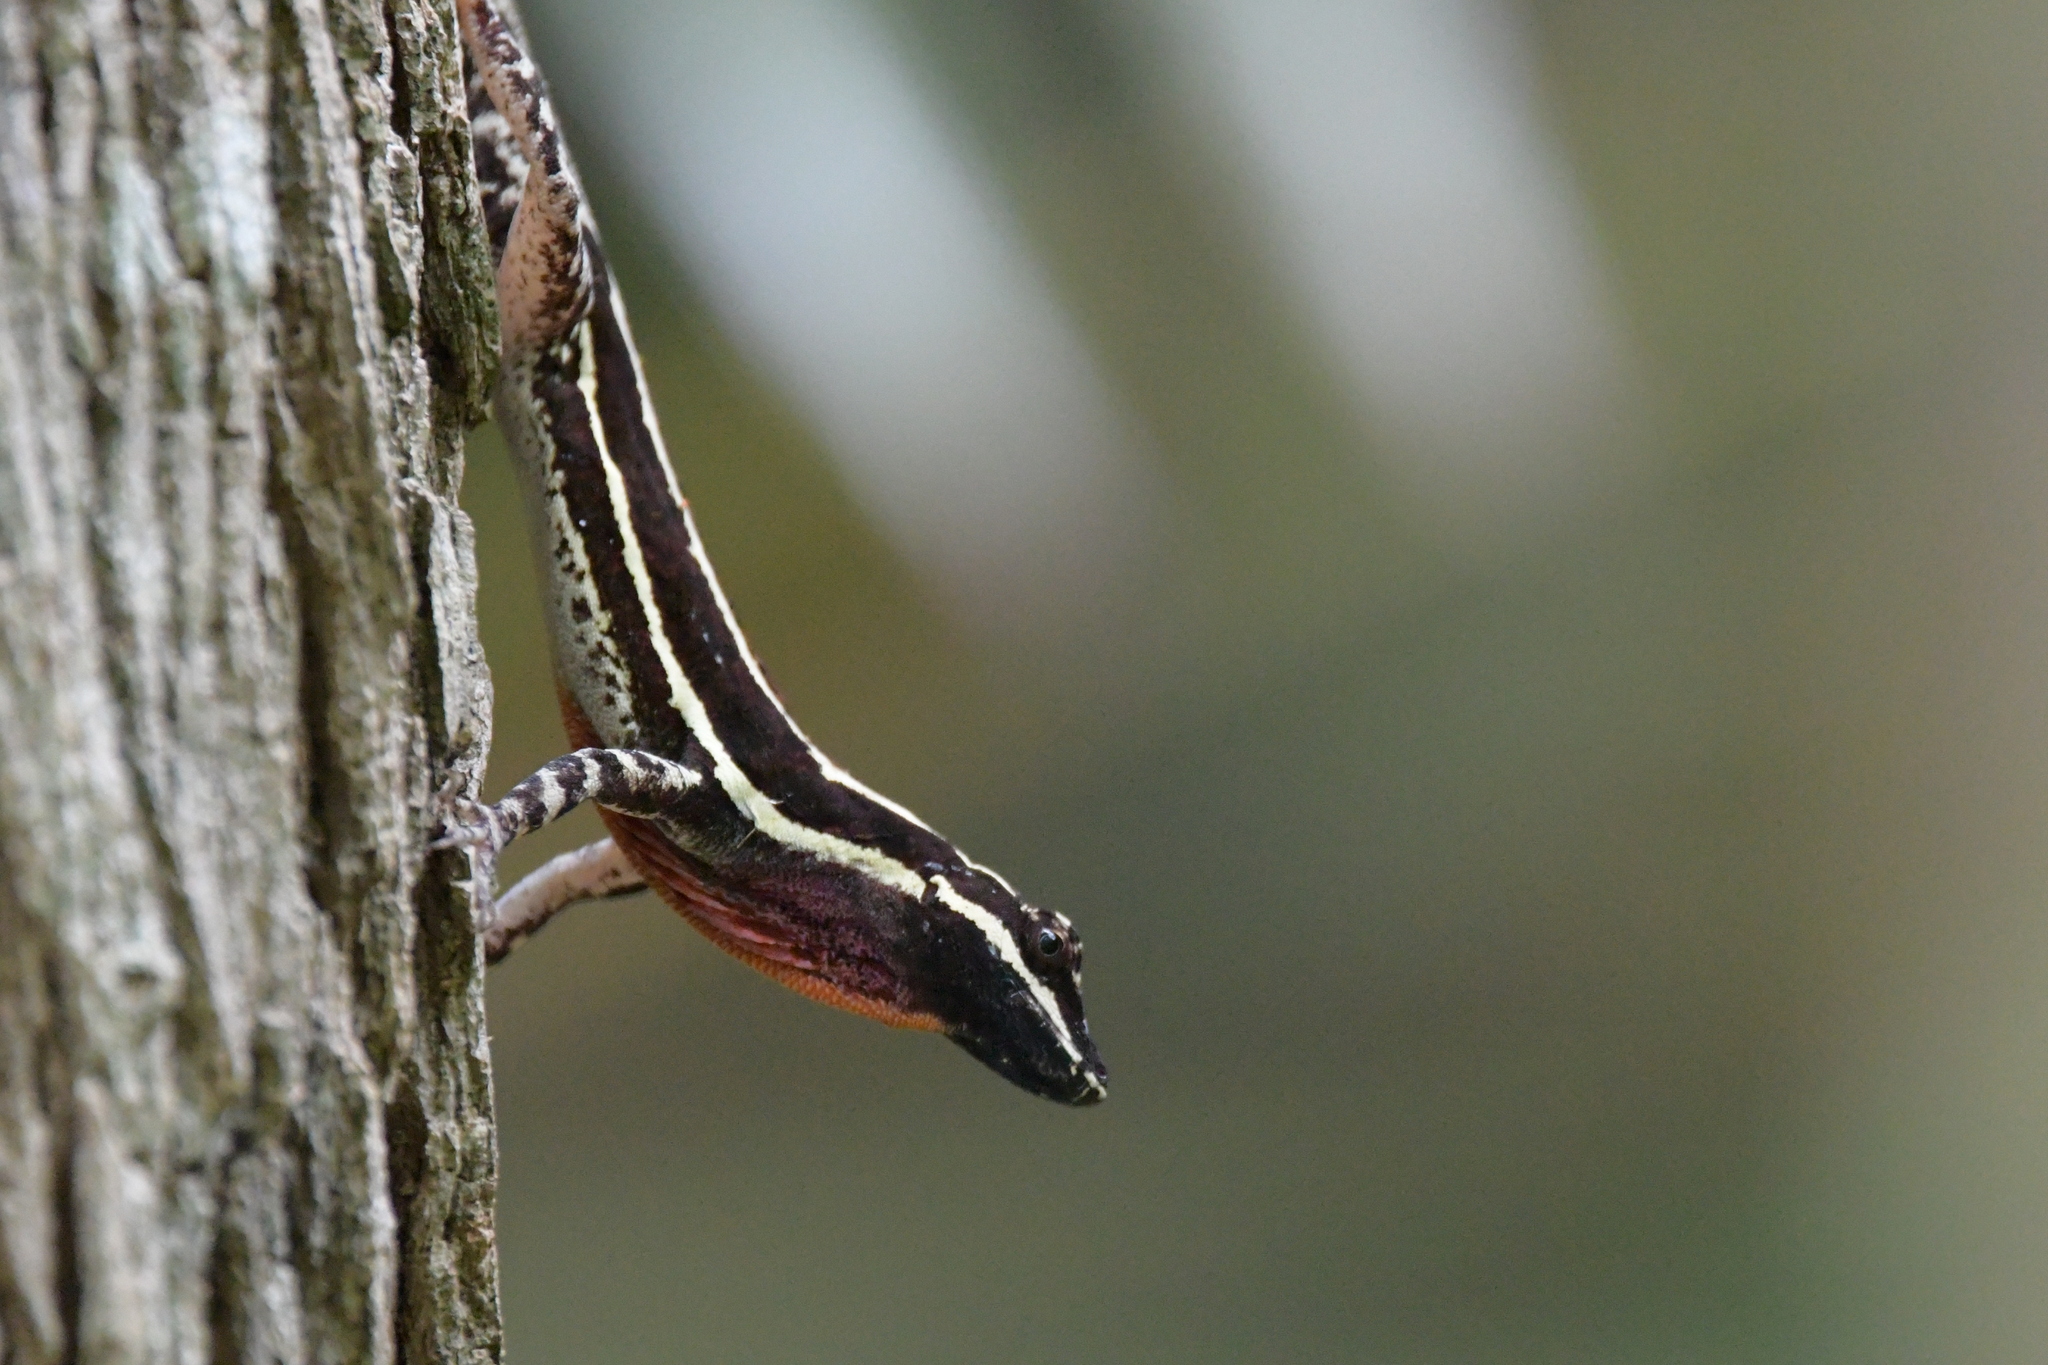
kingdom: Animalia
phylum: Chordata
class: Squamata
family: Dactyloidae
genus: Anolis
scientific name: Anolis taylori
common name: Taylor's anole
